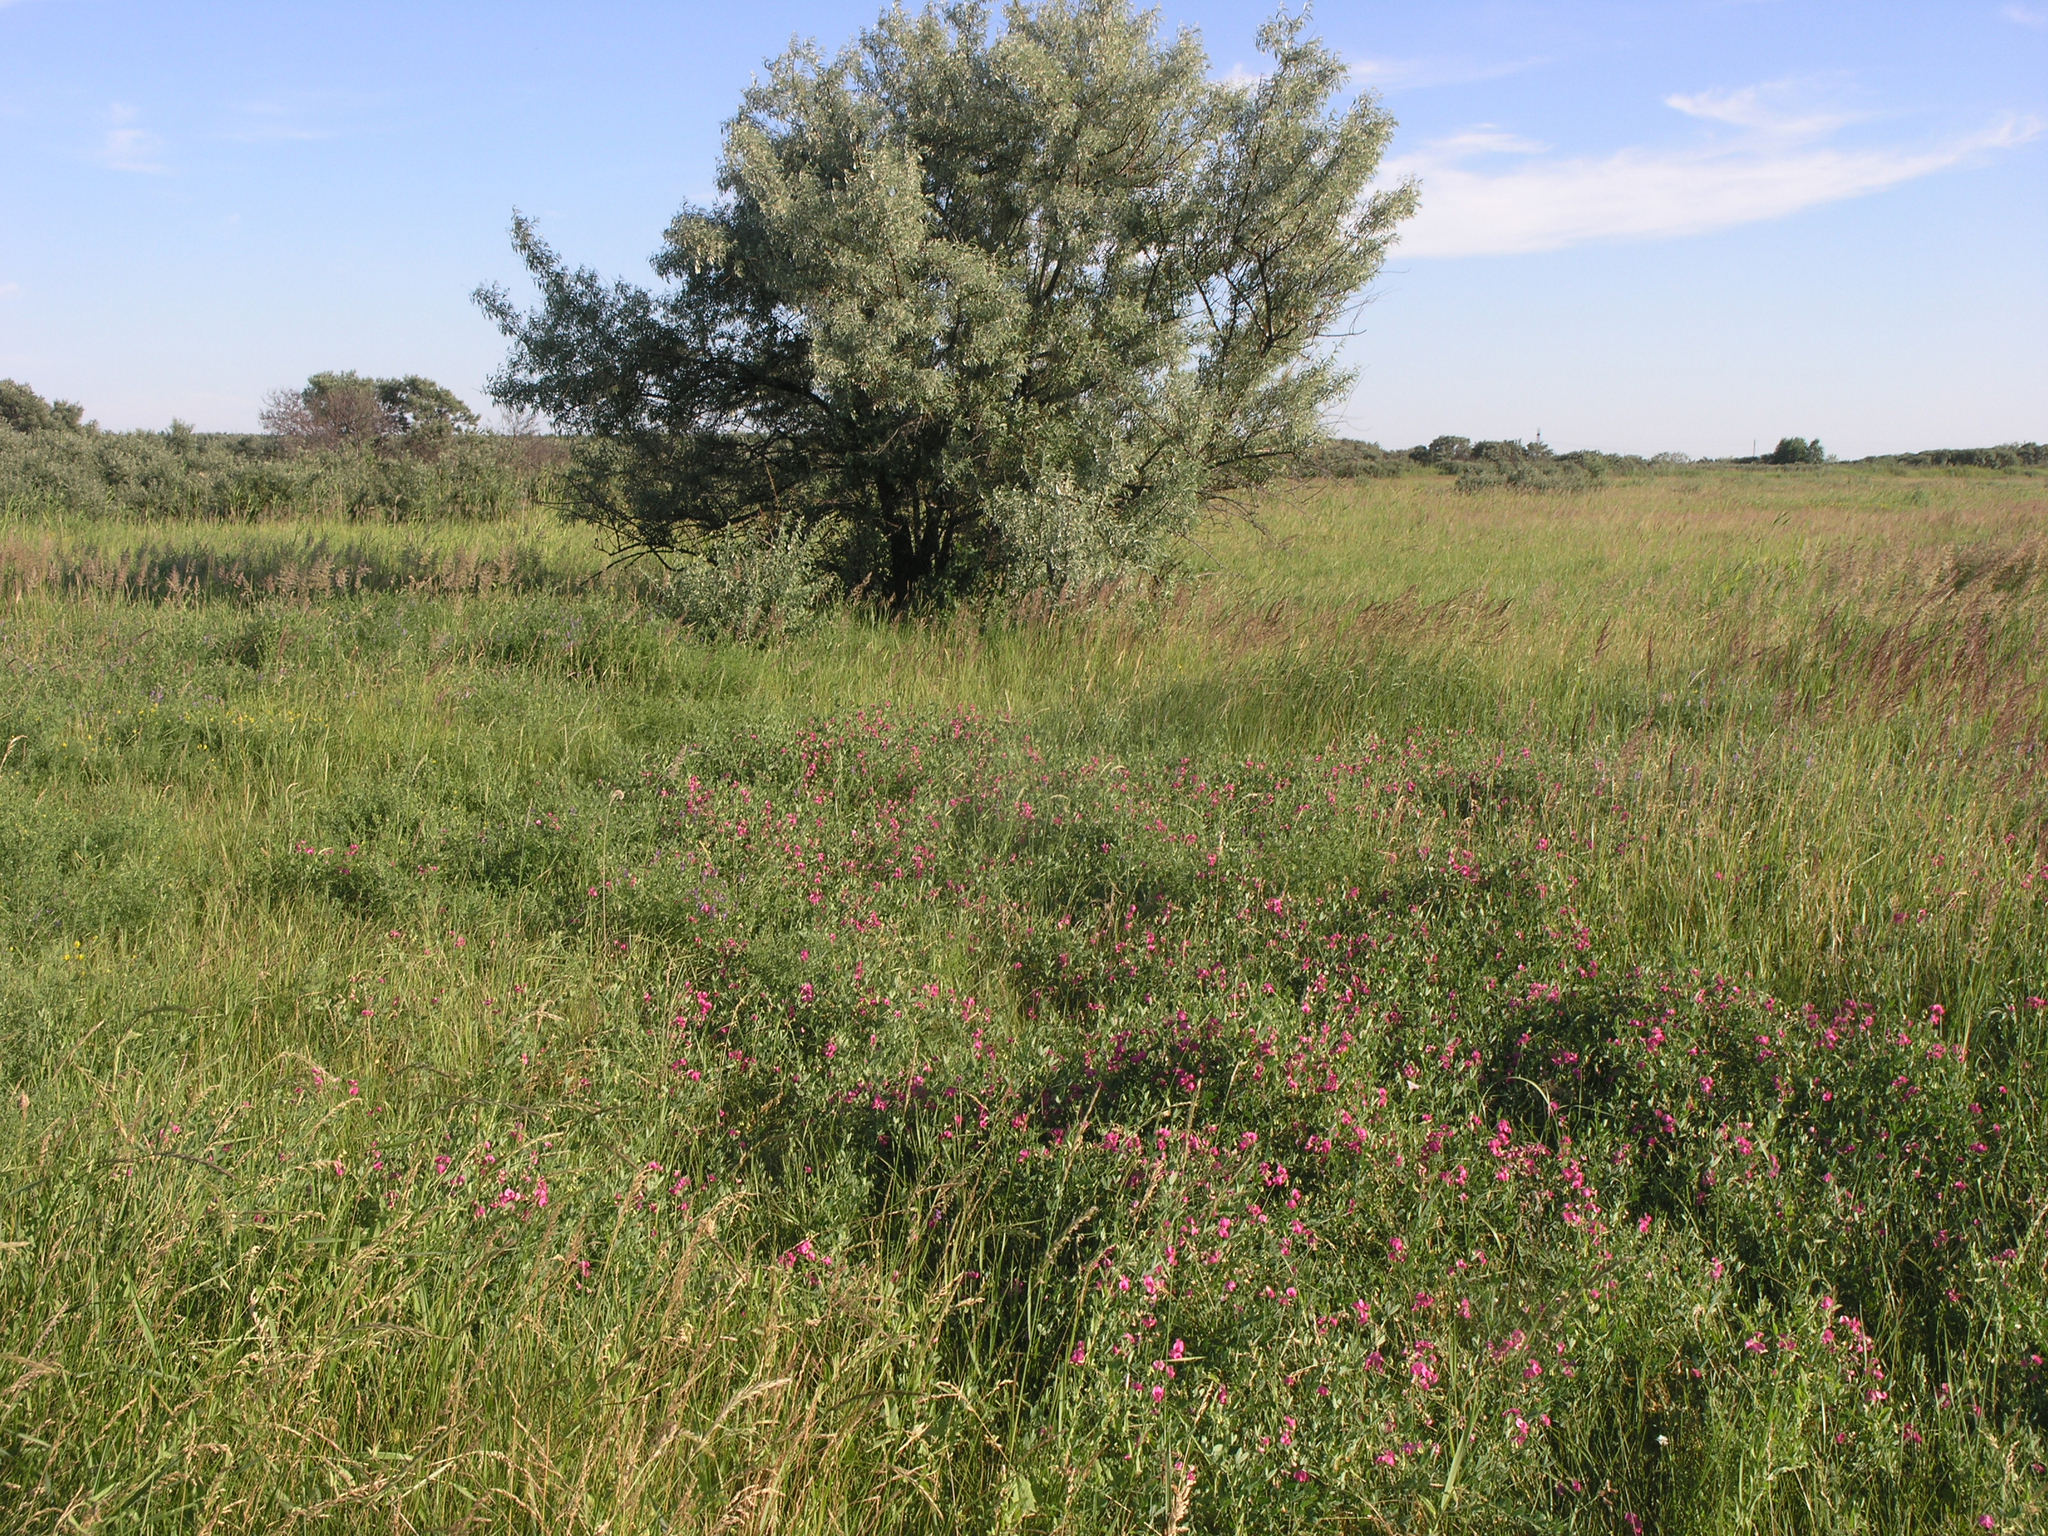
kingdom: Plantae
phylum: Tracheophyta
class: Magnoliopsida
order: Fabales
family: Fabaceae
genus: Lathyrus
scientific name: Lathyrus tuberosus
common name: Tuberous pea
